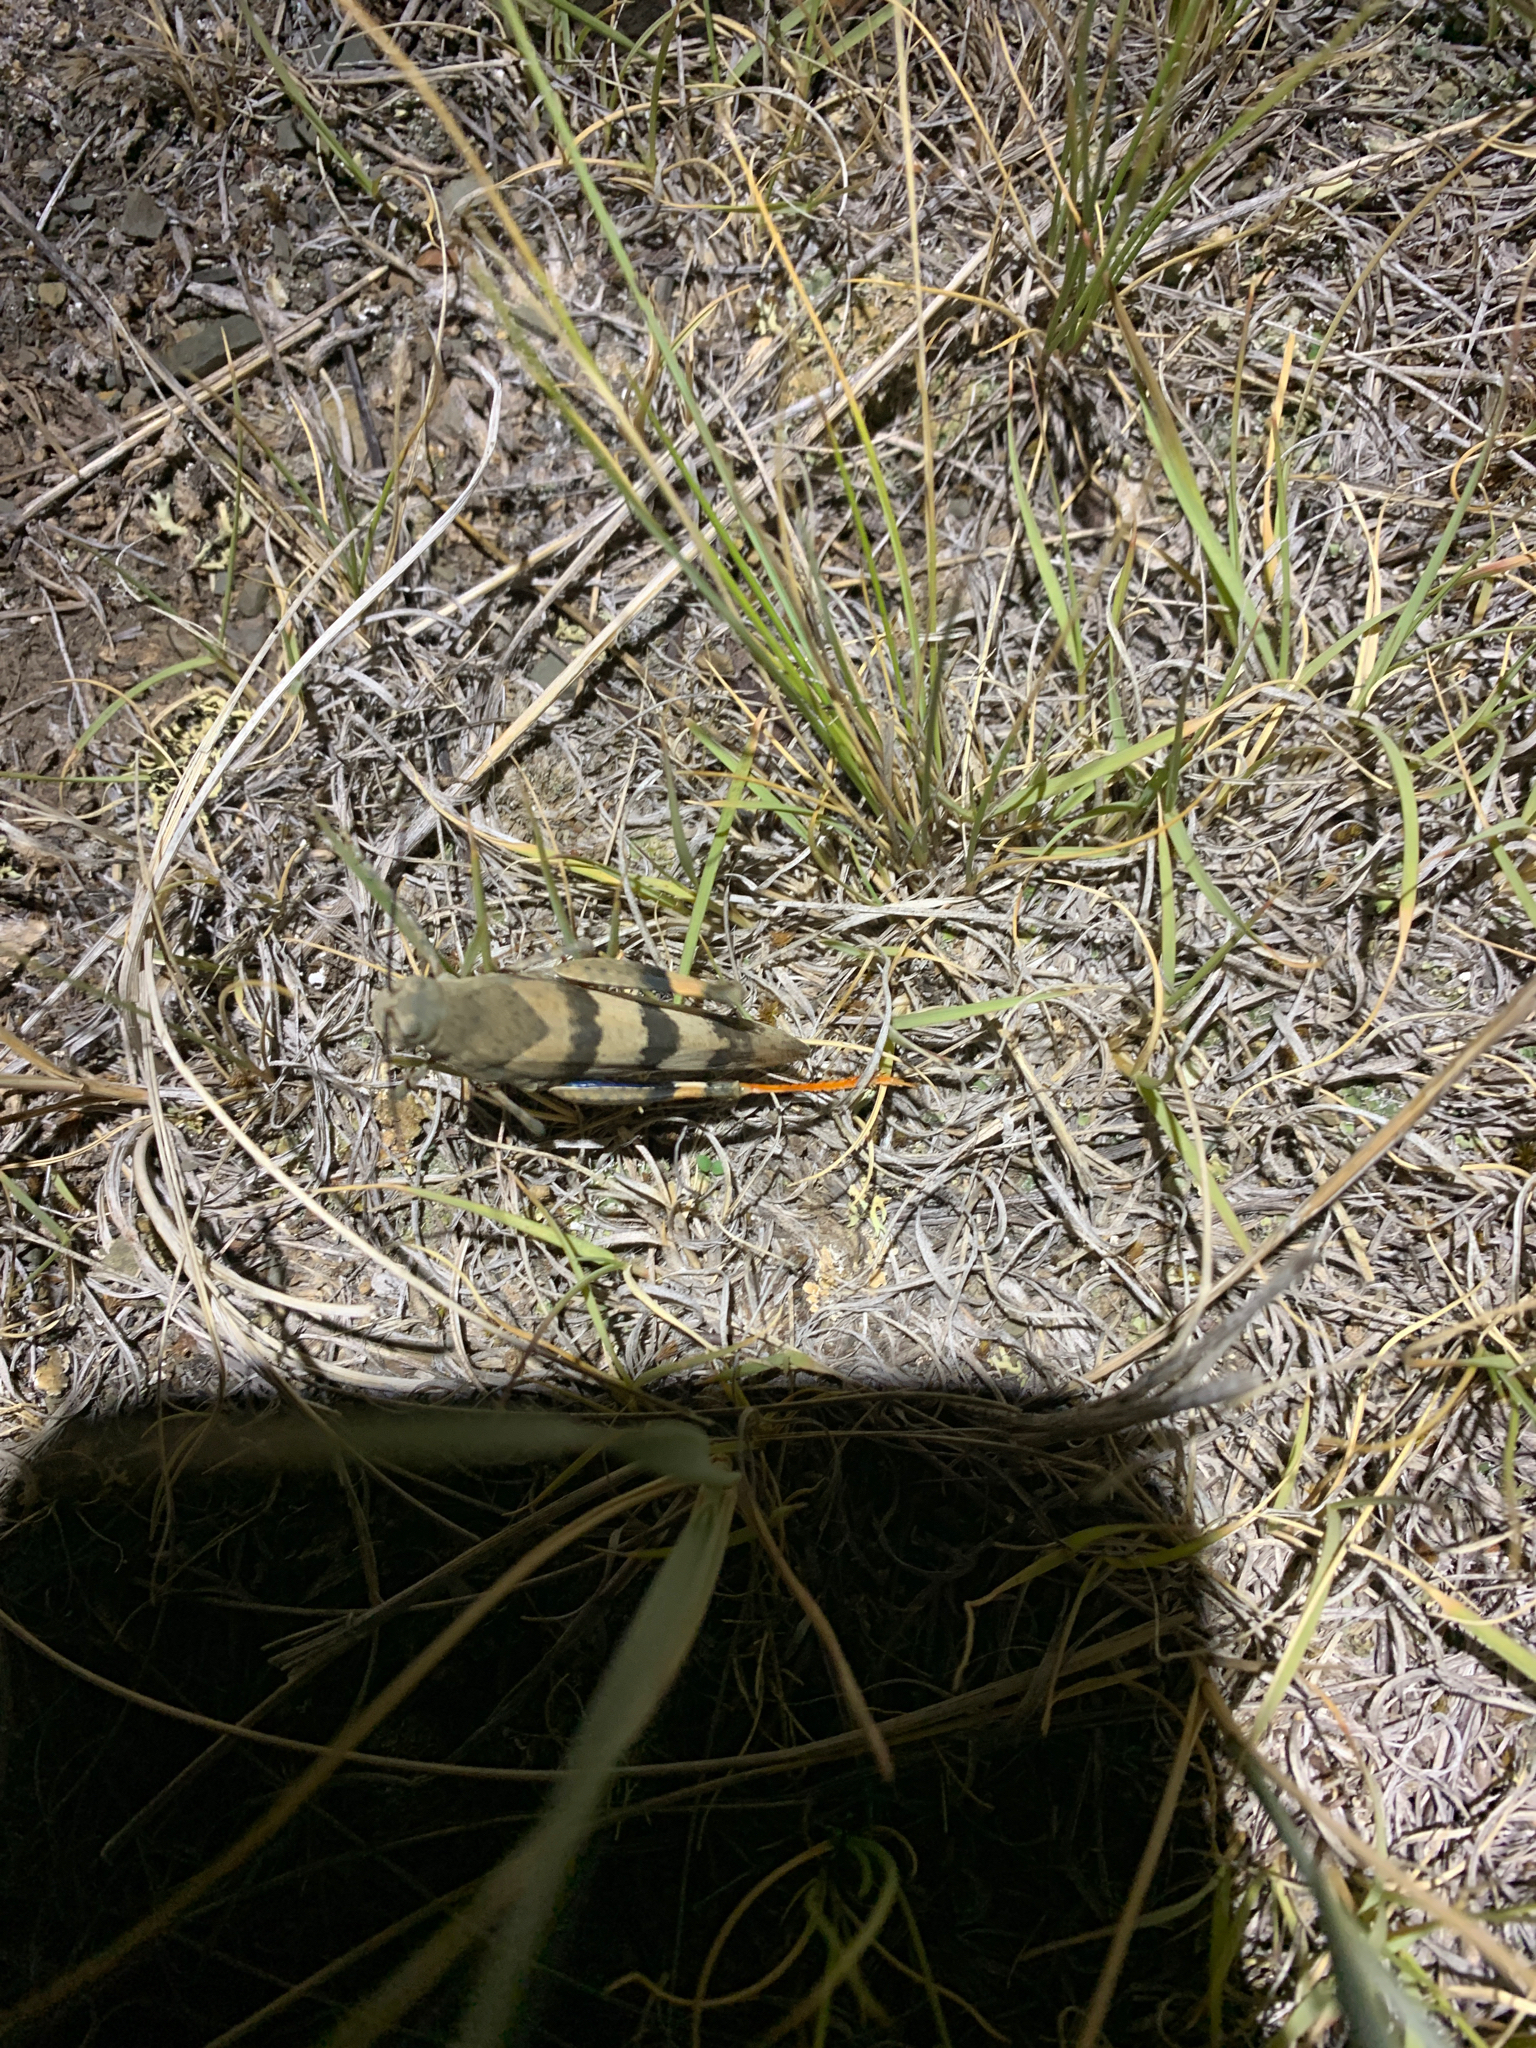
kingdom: Animalia
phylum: Arthropoda
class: Insecta
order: Orthoptera
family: Acrididae
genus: Hadrotettix
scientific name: Hadrotettix trifasciatus
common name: Threebanded grasshopper
